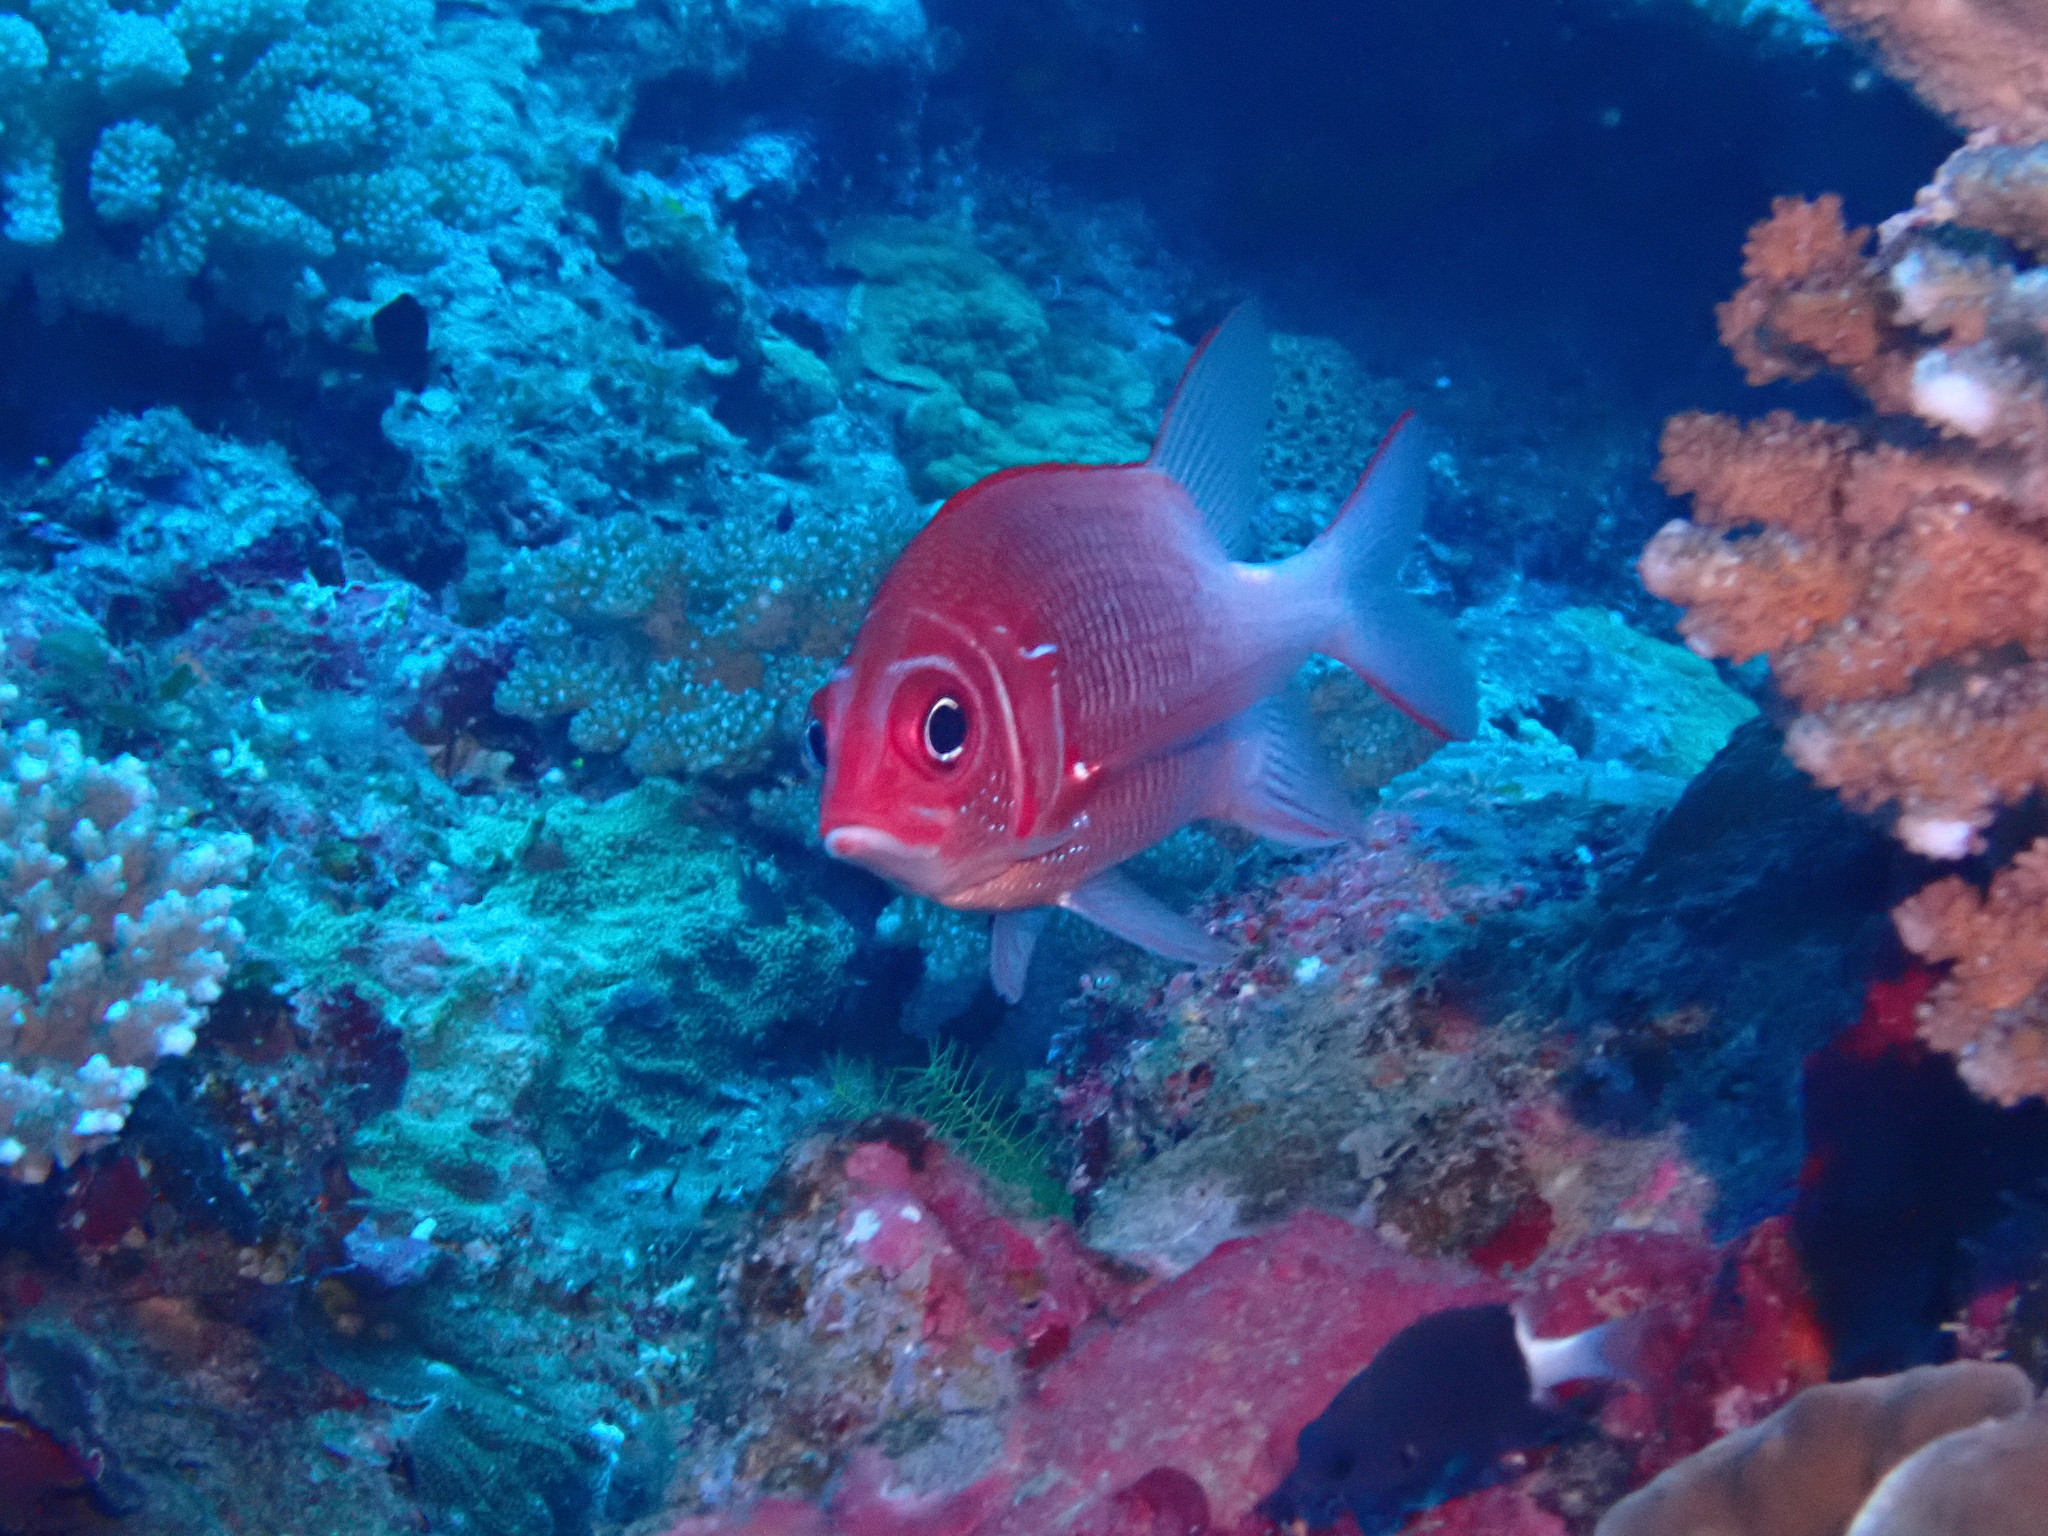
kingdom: Animalia
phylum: Chordata
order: Beryciformes
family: Holocentridae
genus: Sargocentron
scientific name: Sargocentron caudimaculatum
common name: Fanfin soldier
